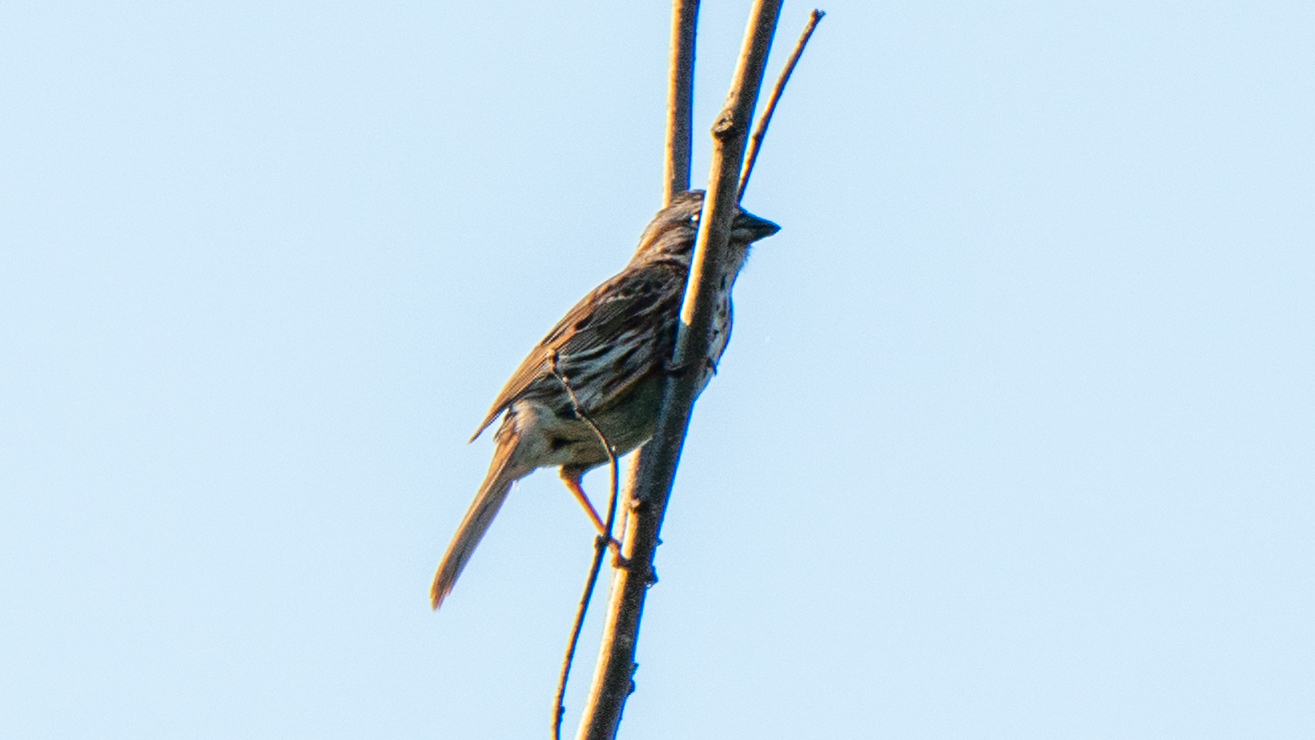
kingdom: Animalia
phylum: Chordata
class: Aves
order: Passeriformes
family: Passerellidae
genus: Melospiza
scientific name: Melospiza melodia
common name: Song sparrow
